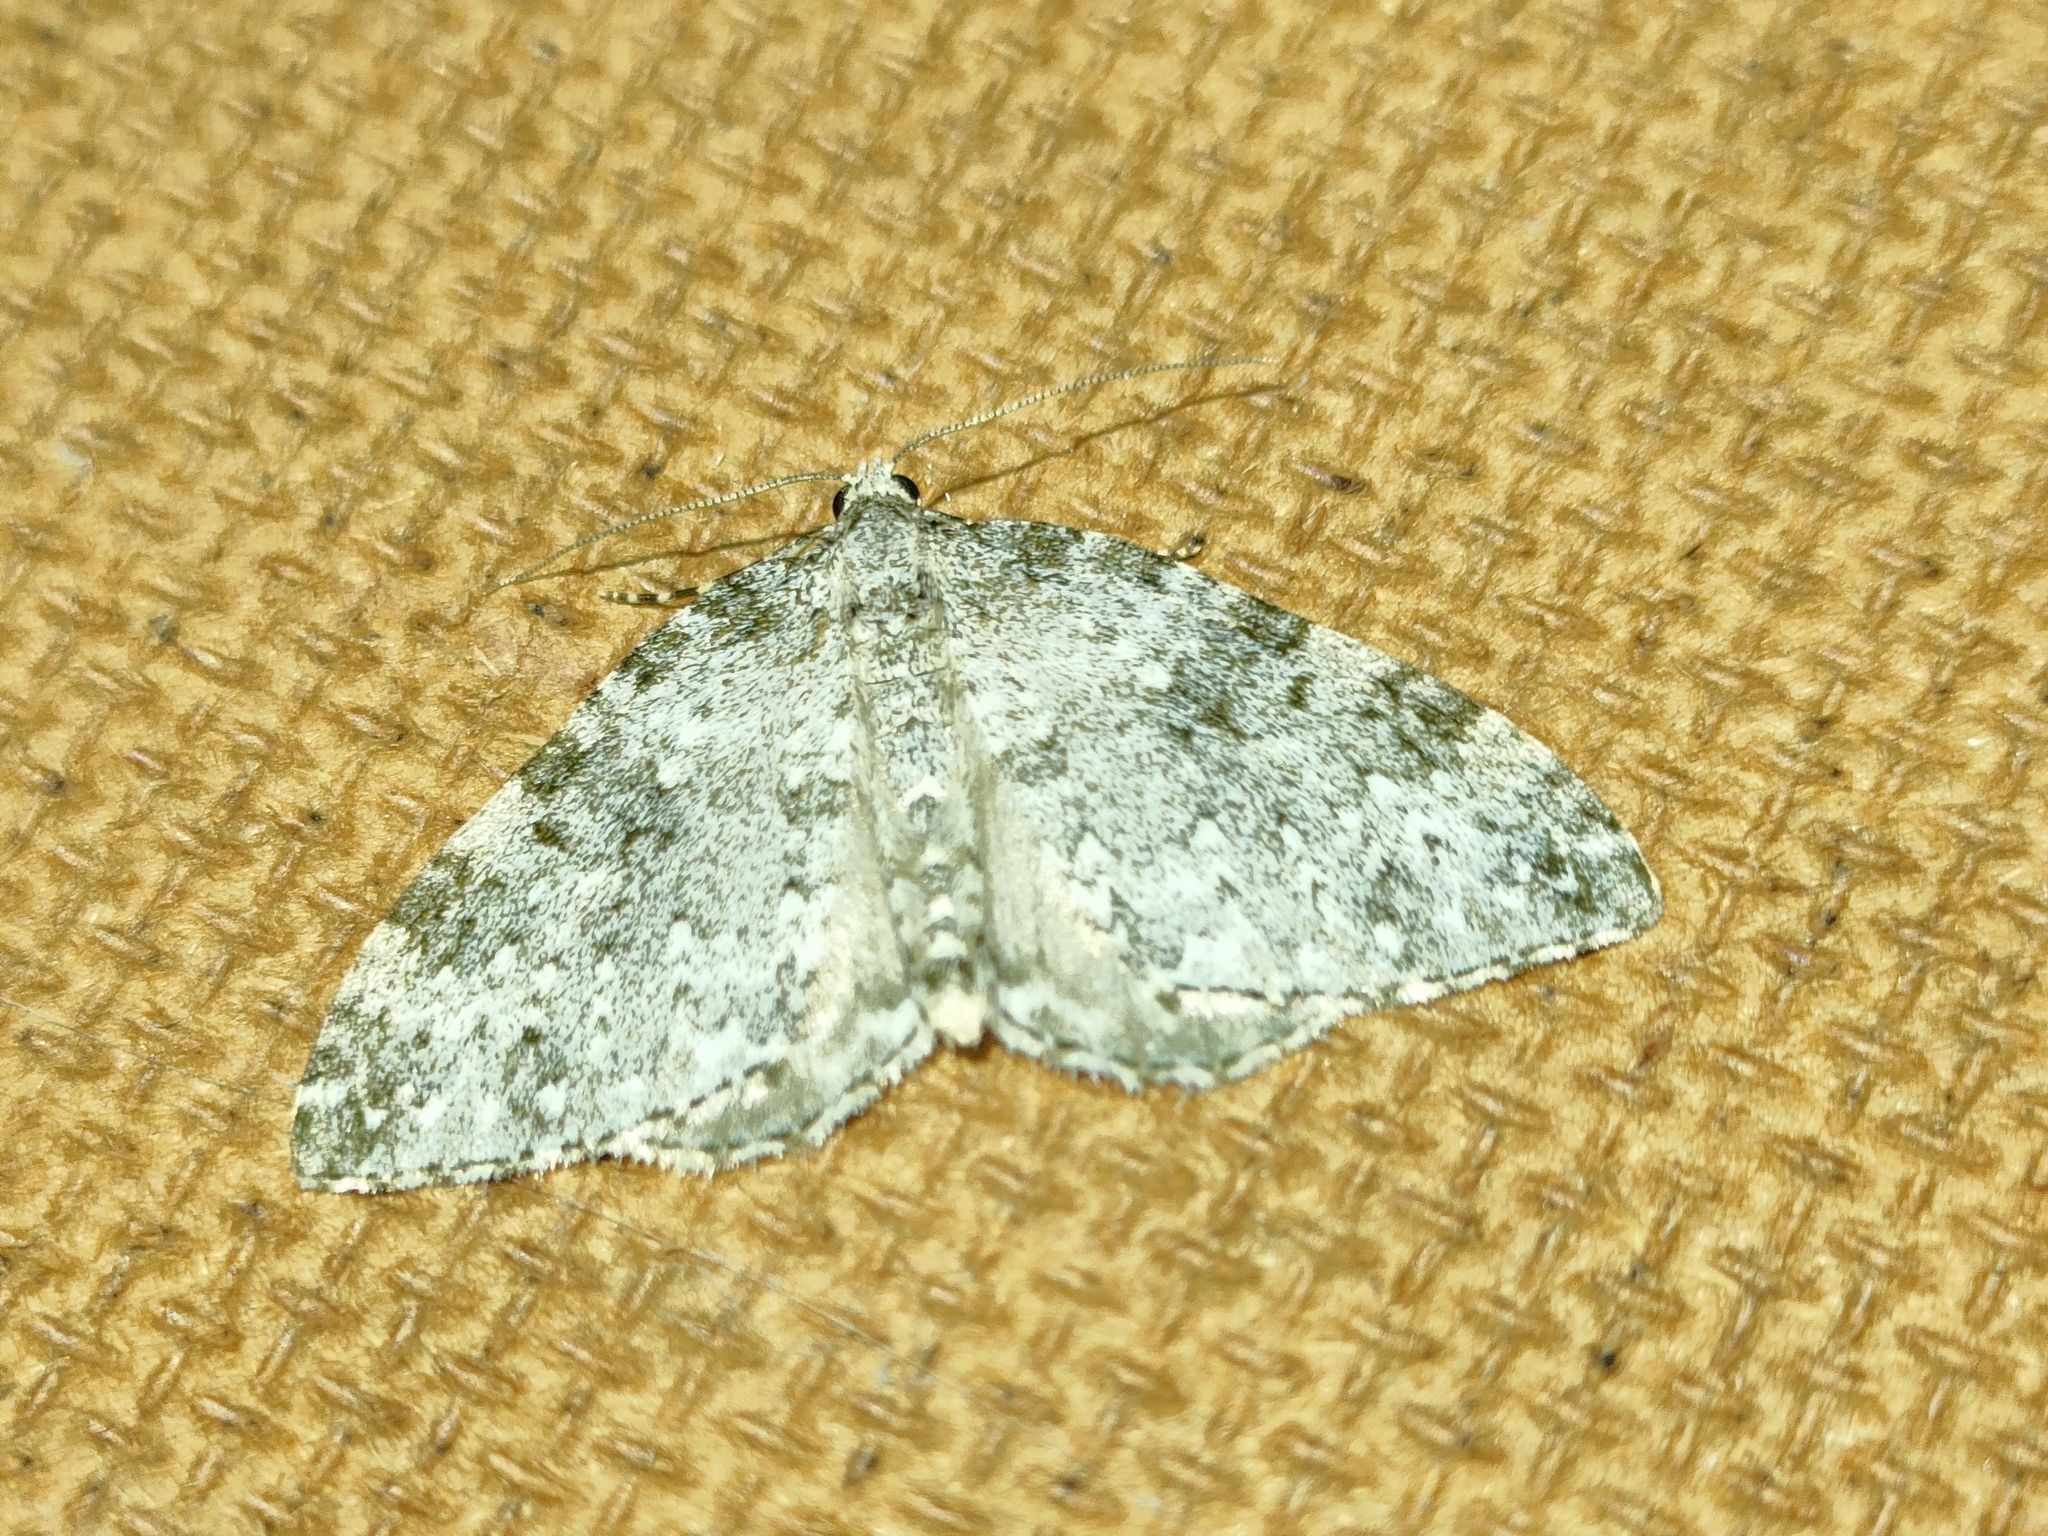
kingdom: Animalia
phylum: Arthropoda
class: Insecta
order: Lepidoptera
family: Geometridae
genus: Entephria
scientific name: Entephria caeruleata
